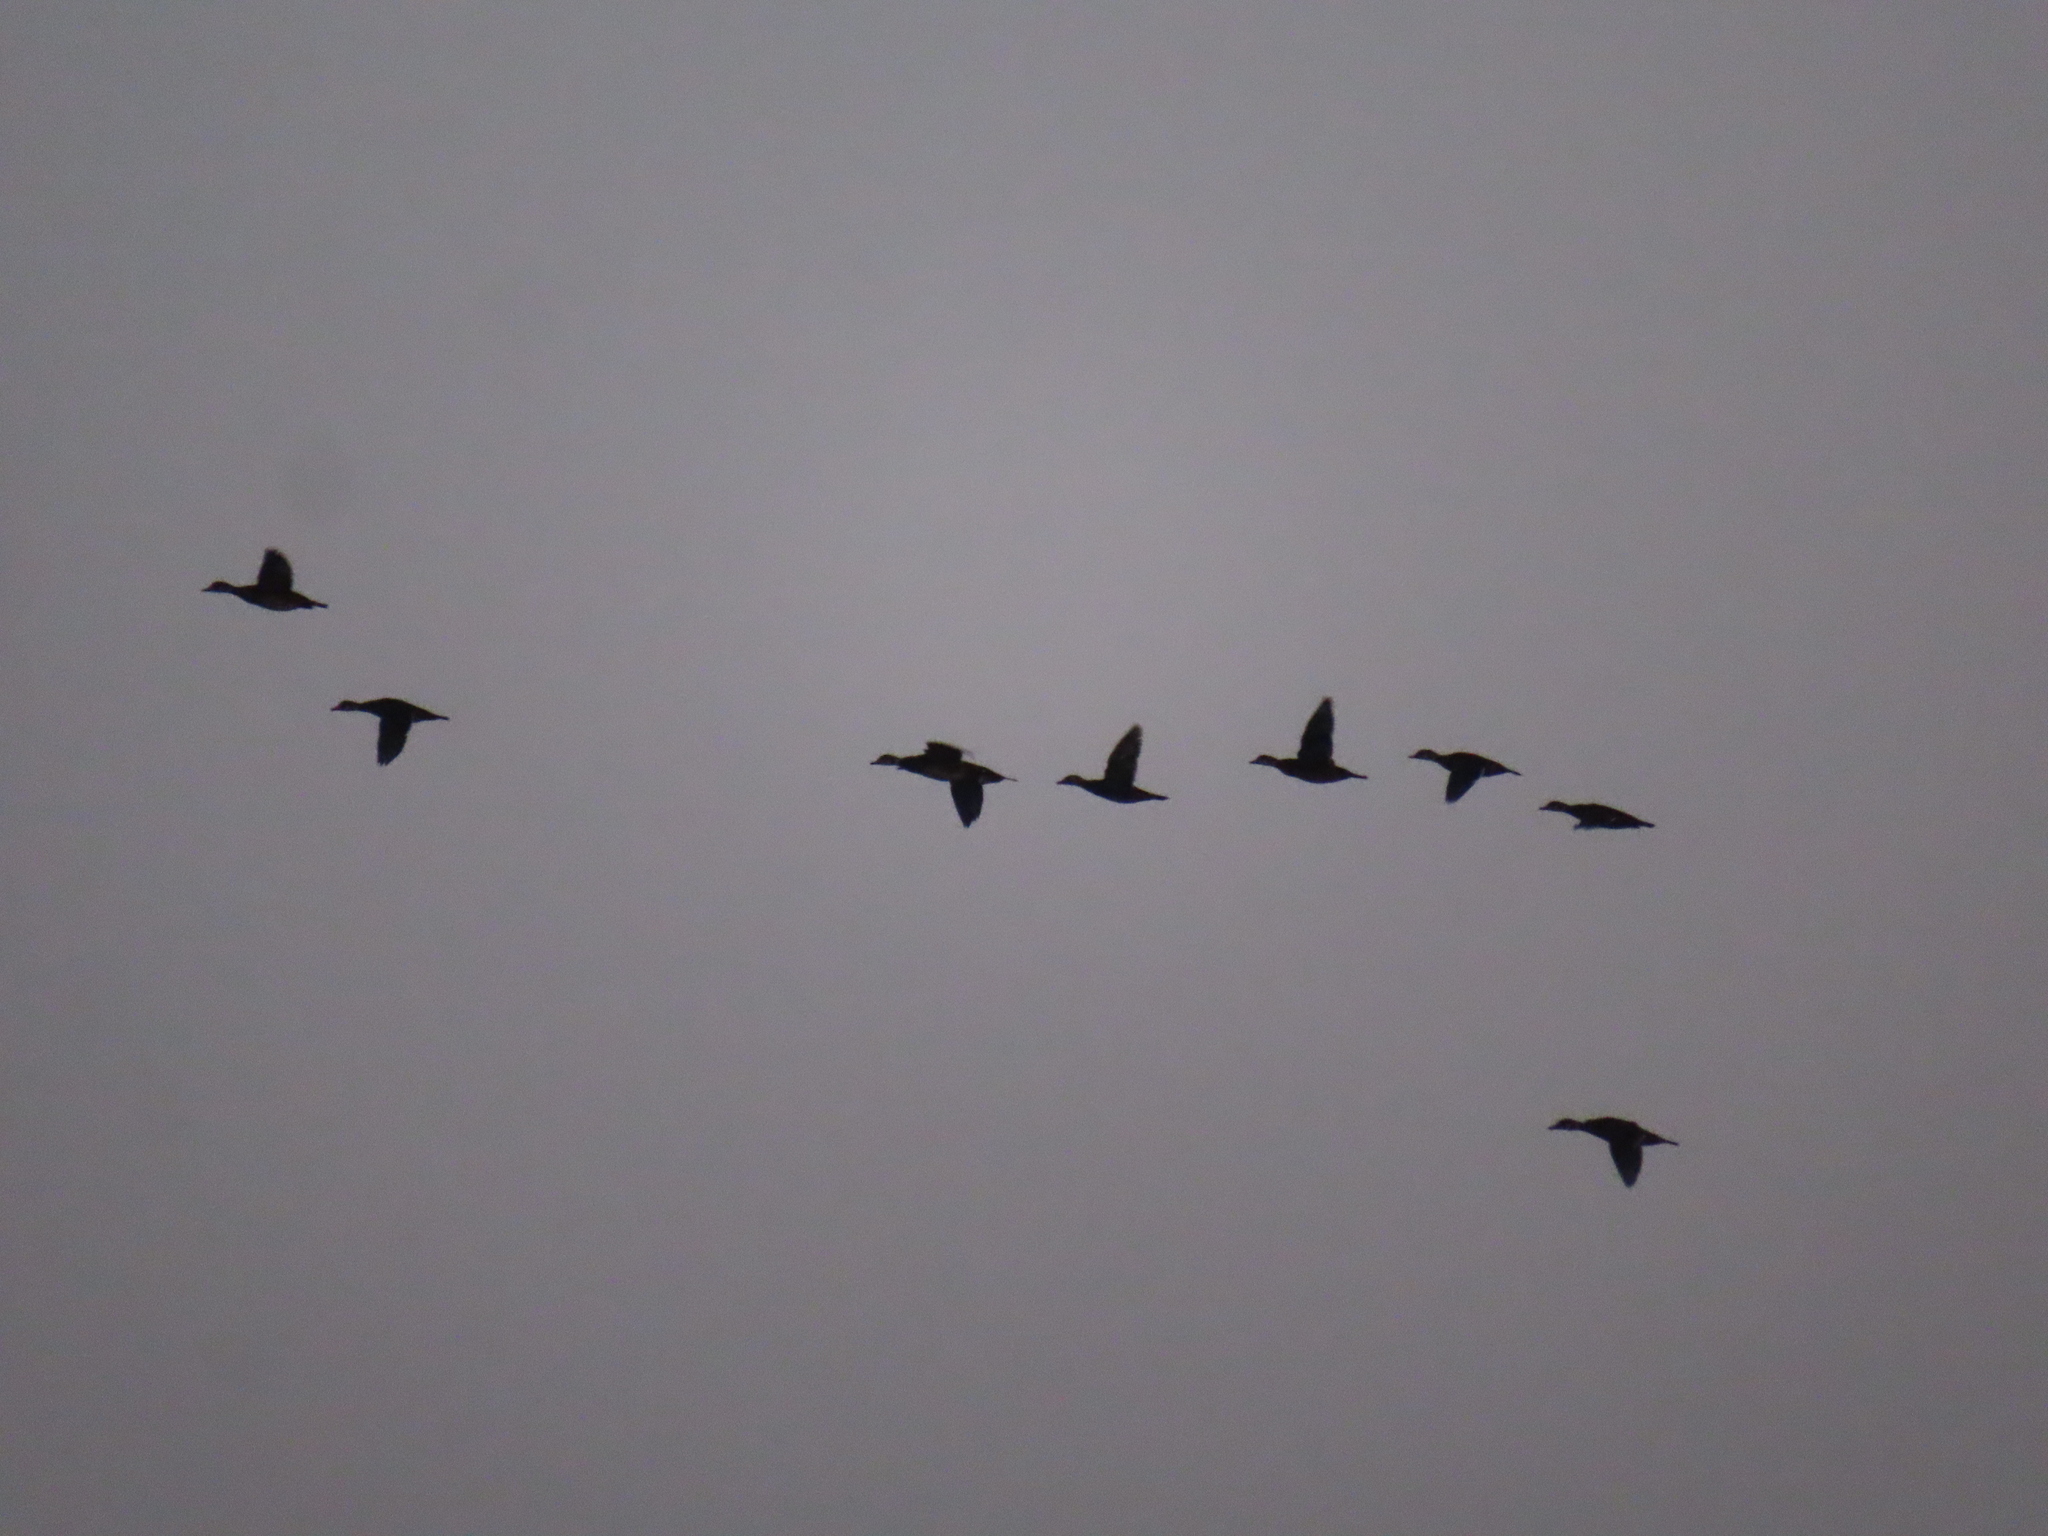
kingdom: Animalia
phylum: Chordata
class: Aves
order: Anseriformes
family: Anatidae
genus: Aix
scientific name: Aix sponsa
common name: Wood duck
